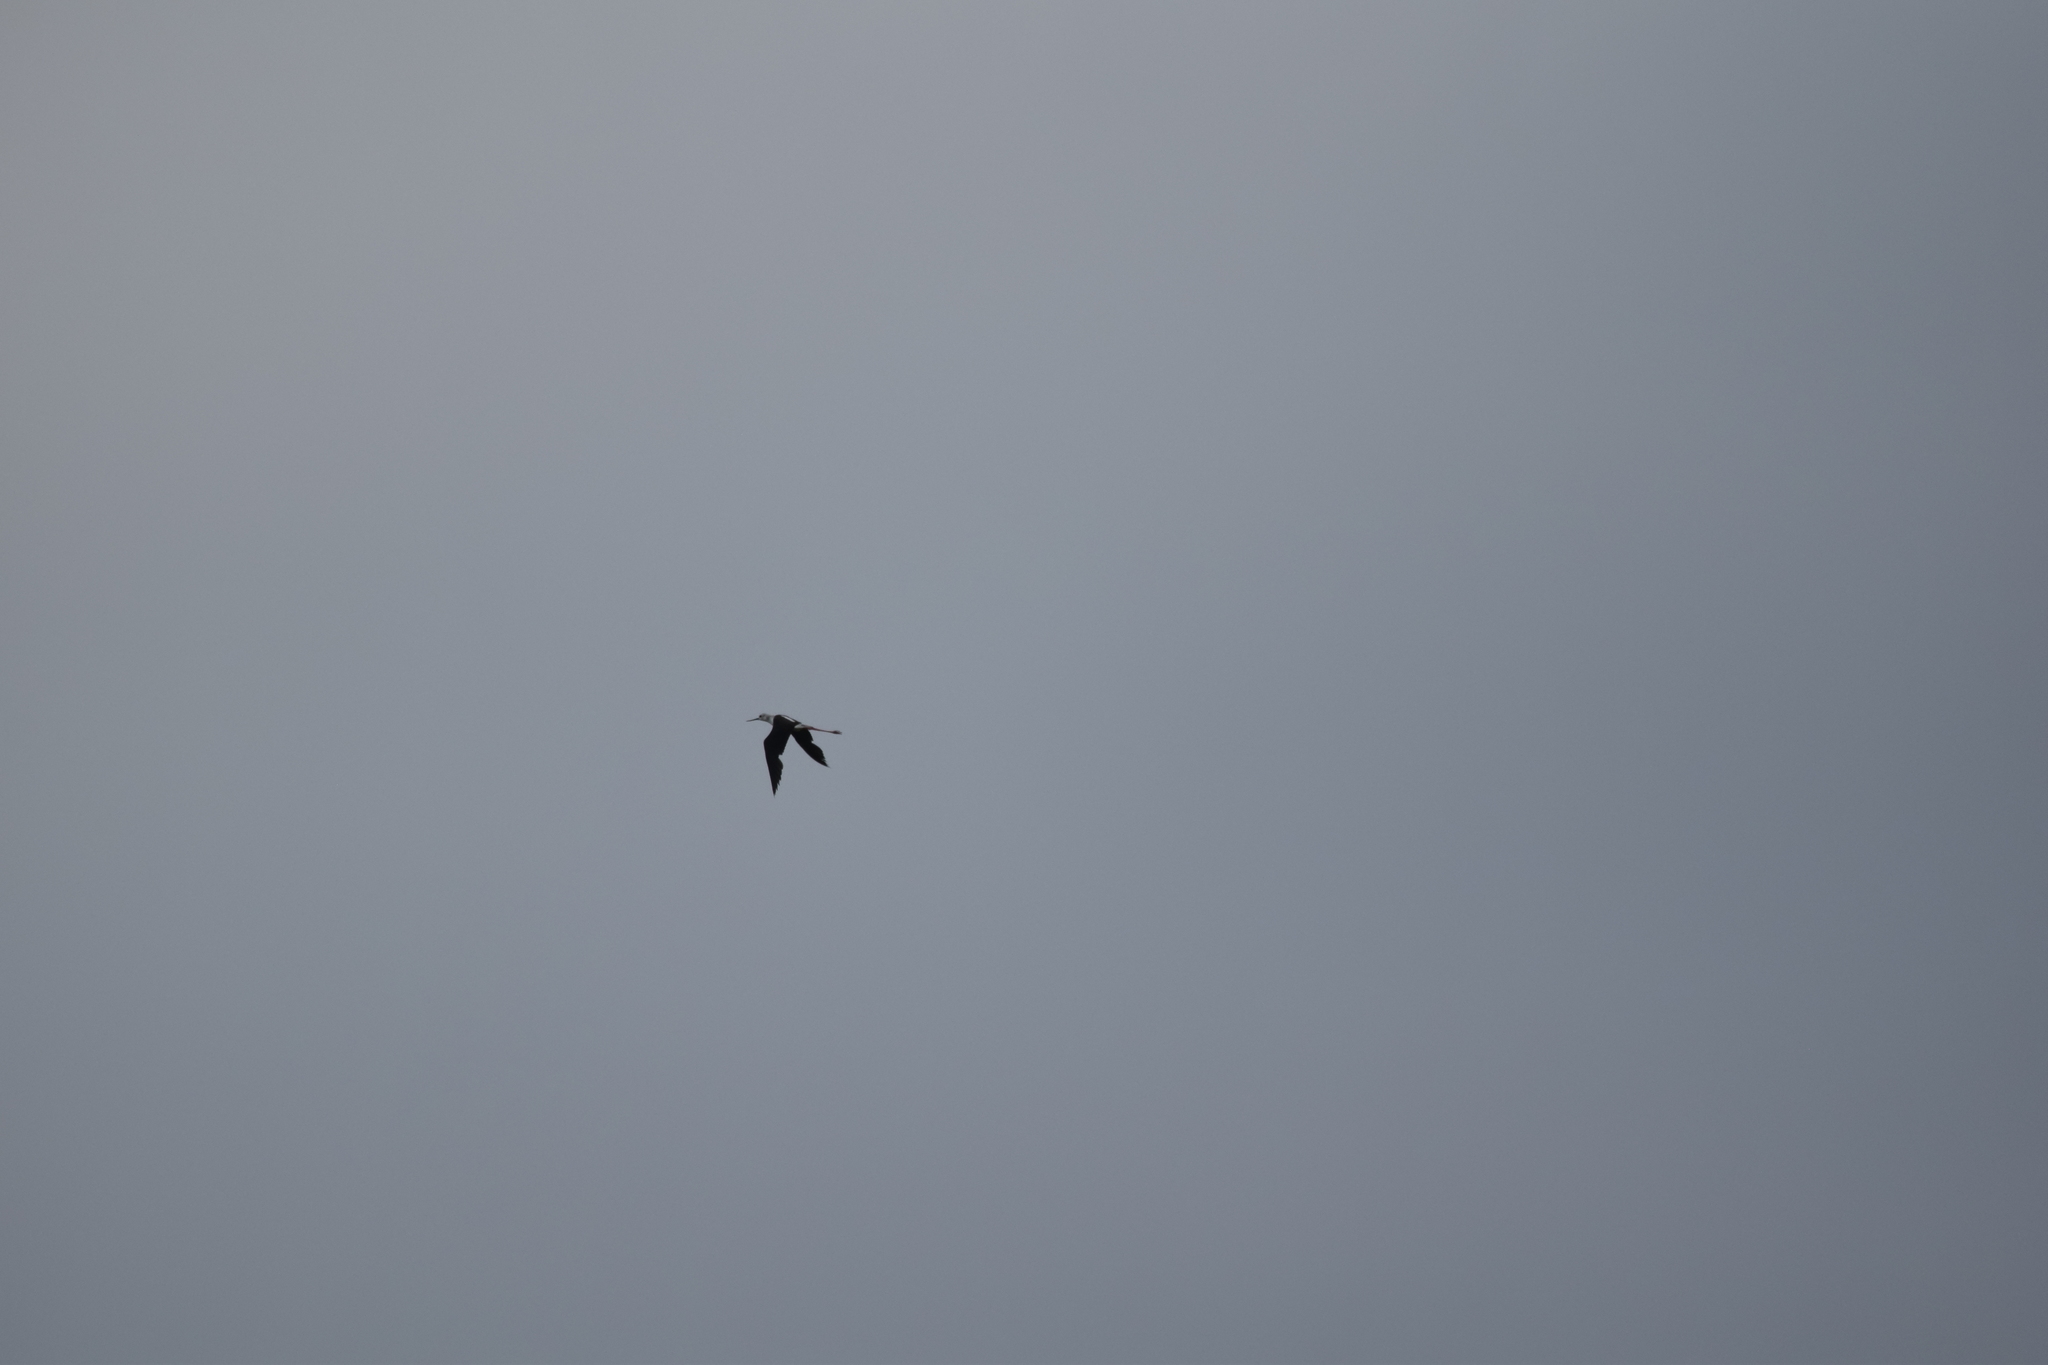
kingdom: Animalia
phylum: Chordata
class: Aves
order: Charadriiformes
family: Recurvirostridae
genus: Himantopus
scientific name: Himantopus himantopus
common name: Black-winged stilt
